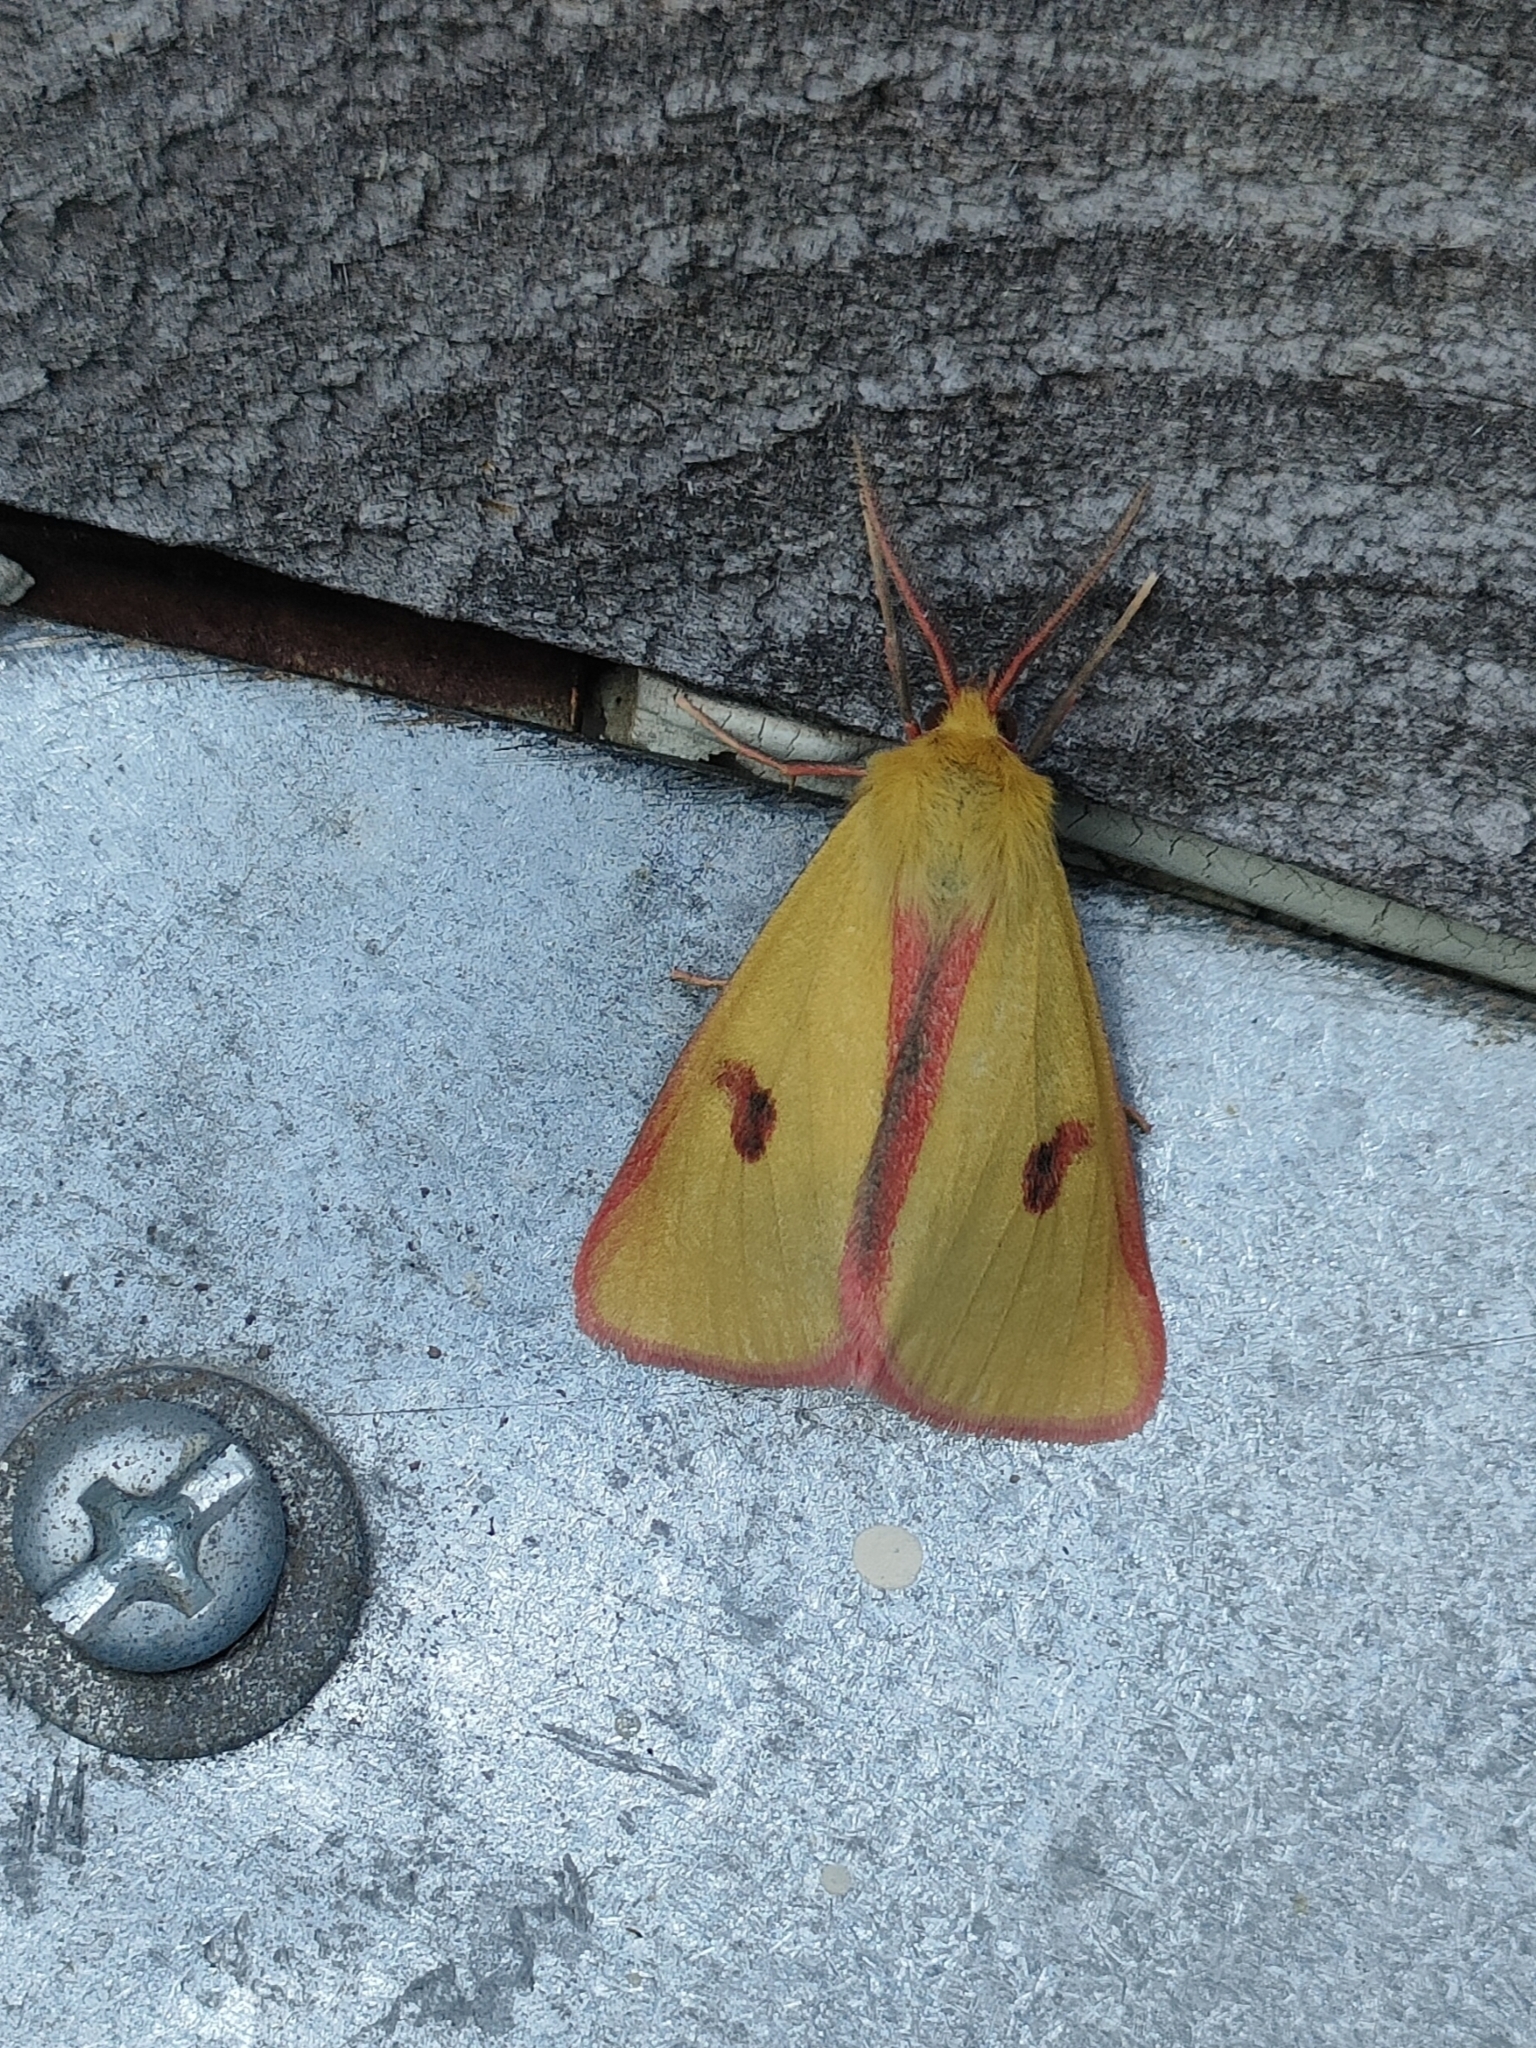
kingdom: Animalia
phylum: Arthropoda
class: Insecta
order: Lepidoptera
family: Erebidae
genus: Diacrisia
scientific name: Diacrisia sannio
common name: Clouded buff
